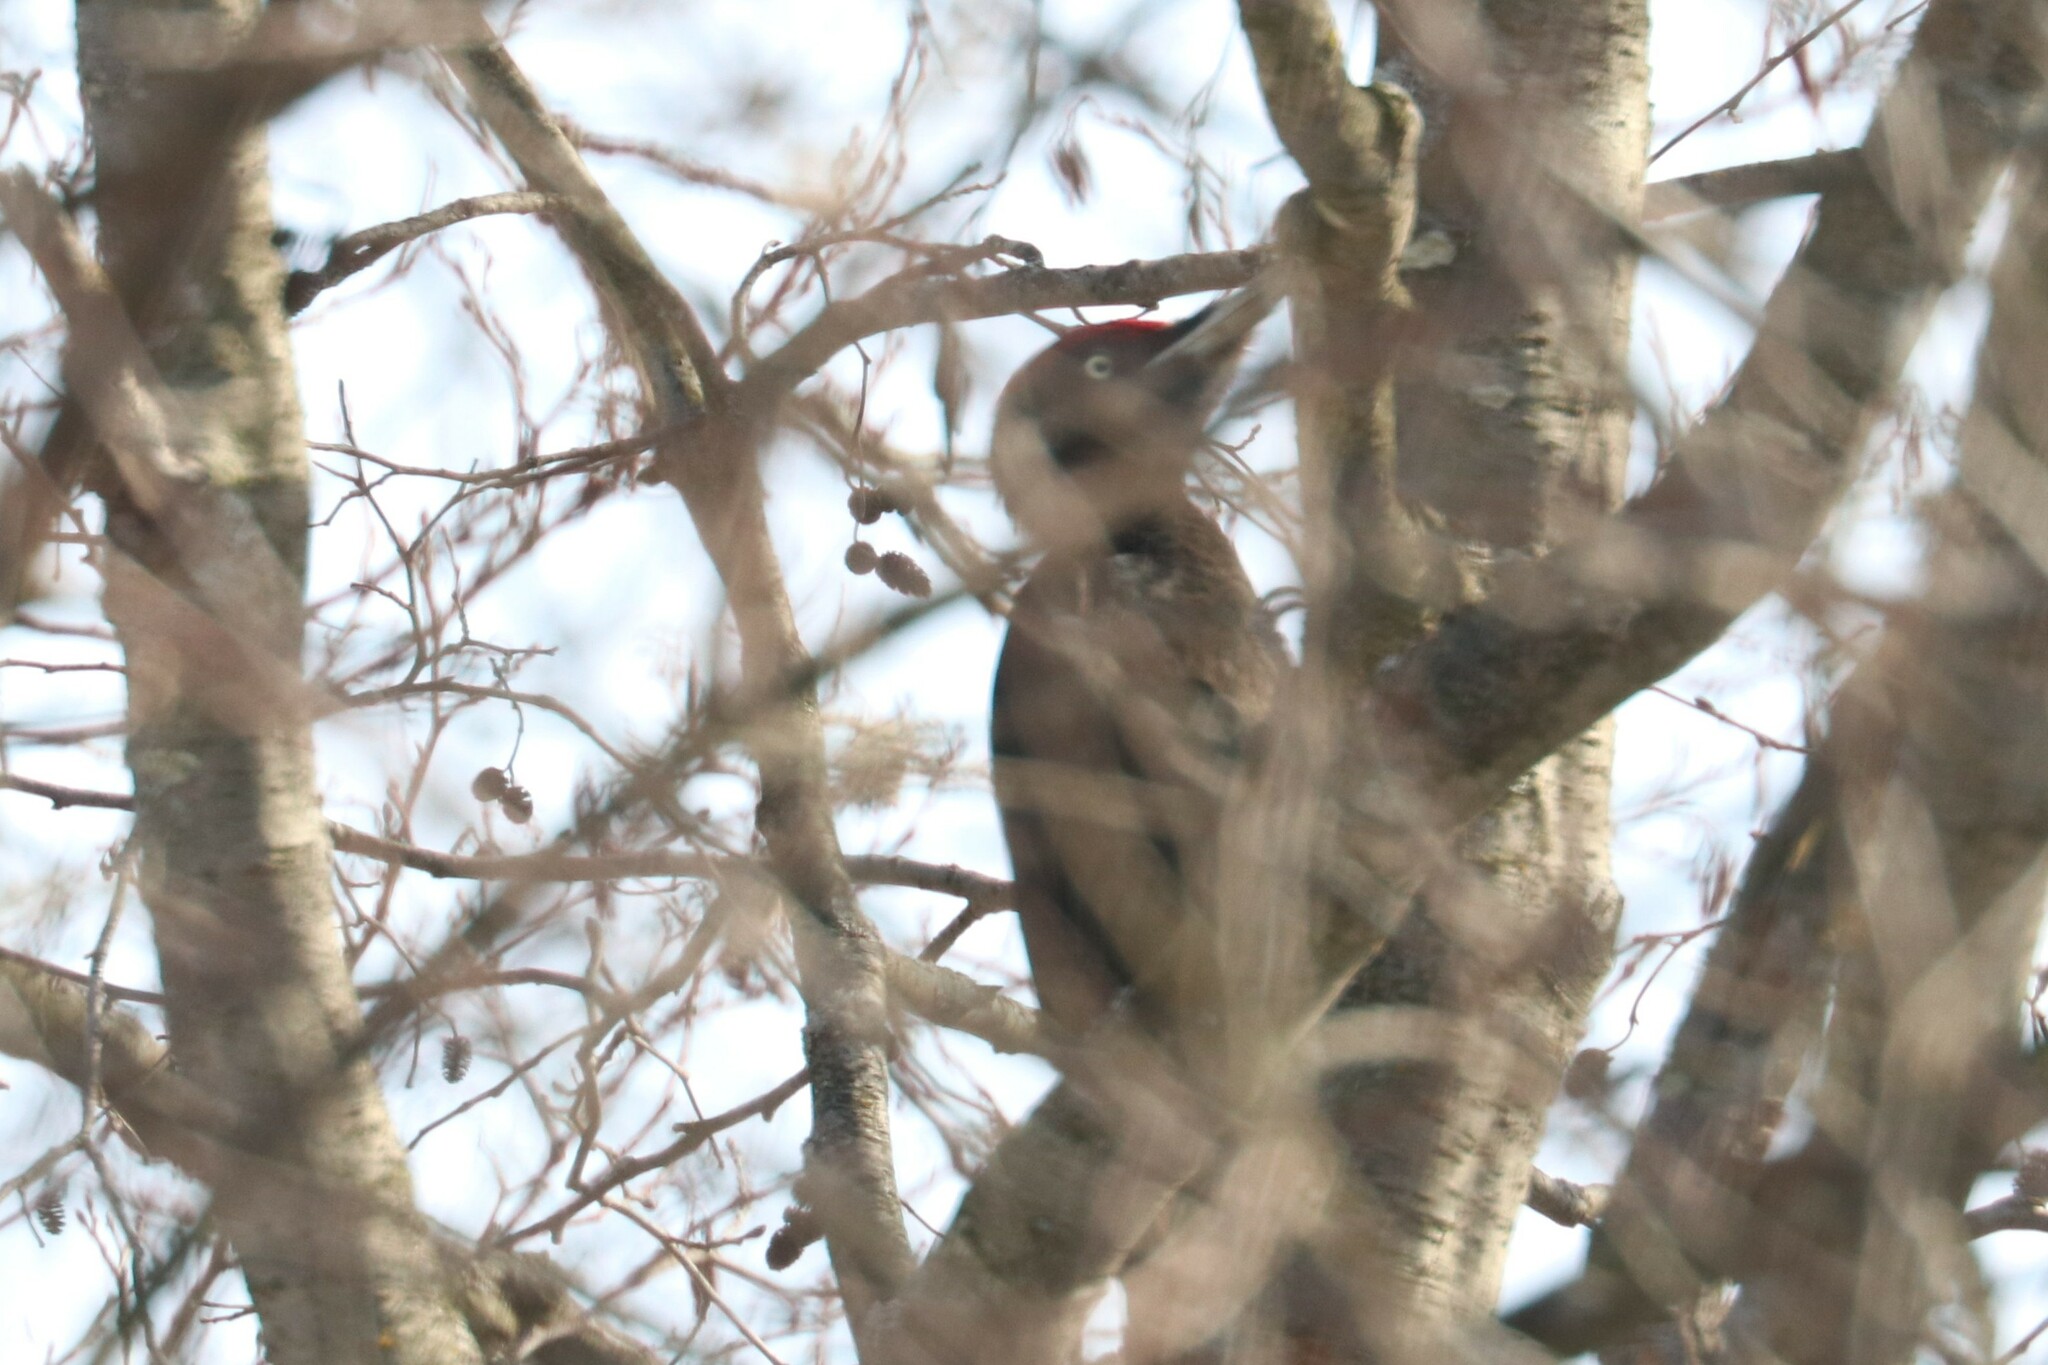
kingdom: Animalia
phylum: Chordata
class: Aves
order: Piciformes
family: Picidae
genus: Dryocopus
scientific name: Dryocopus martius
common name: Black woodpecker
